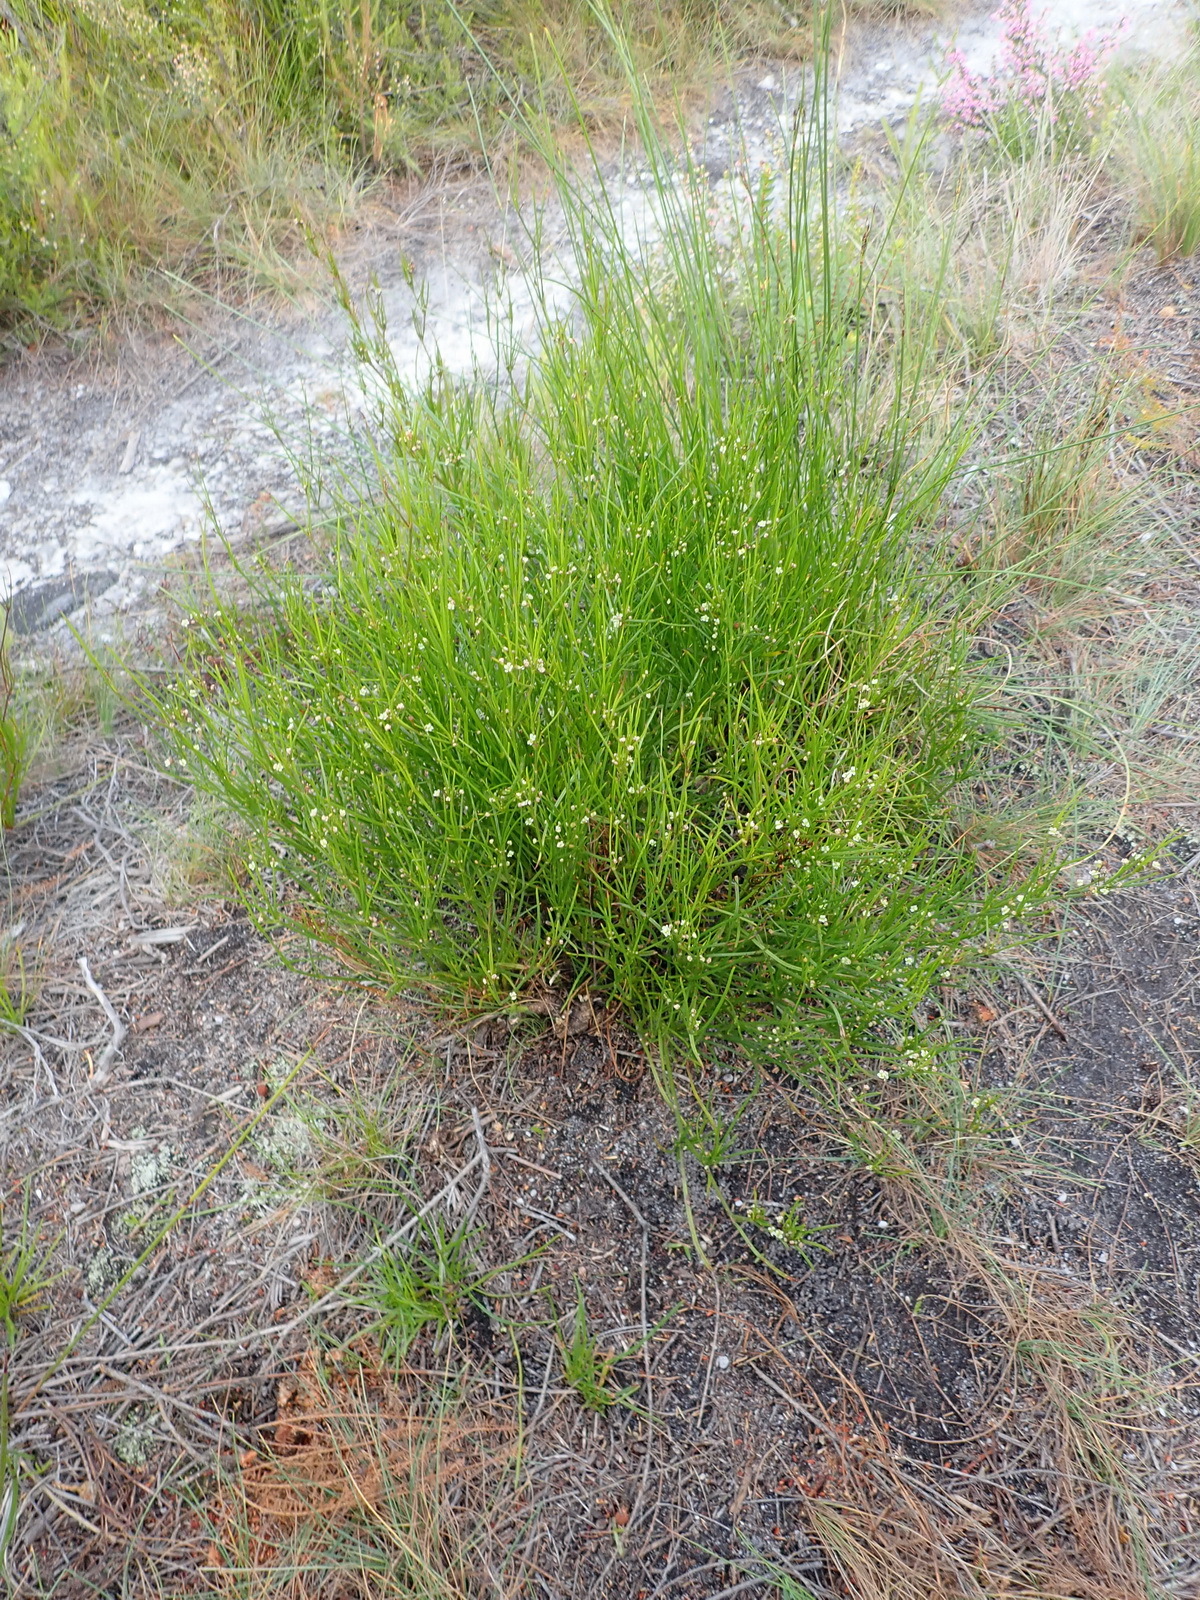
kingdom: Plantae
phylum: Tracheophyta
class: Magnoliopsida
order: Apiales
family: Apiaceae
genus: Centella
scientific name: Centella virgata
